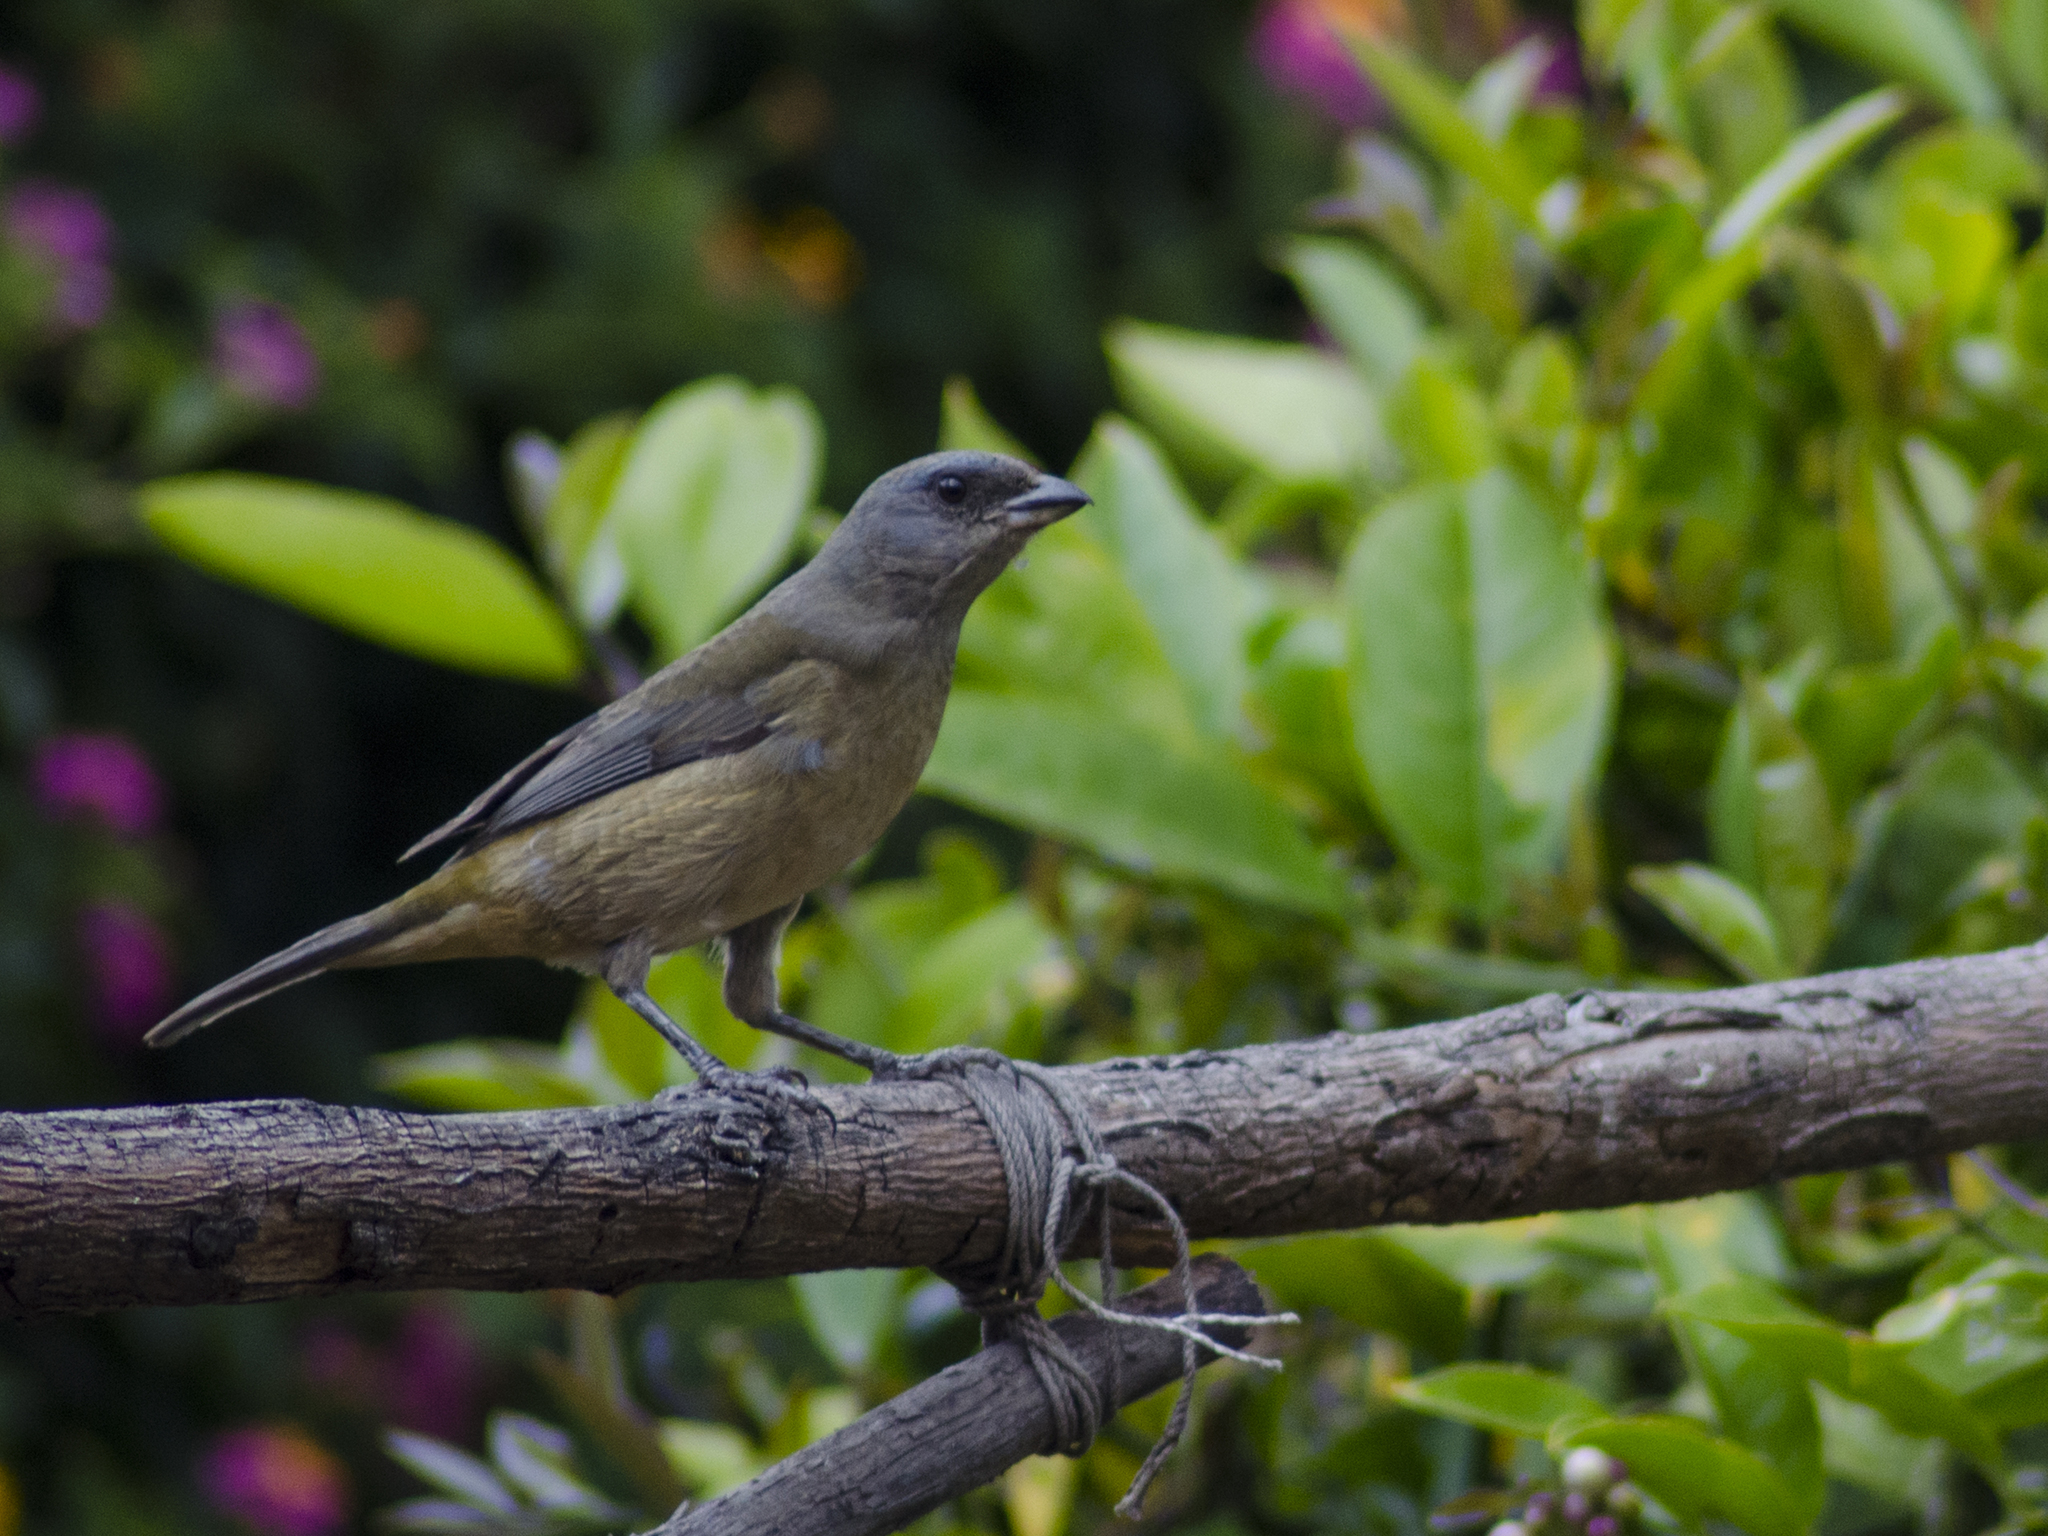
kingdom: Animalia
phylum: Chordata
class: Aves
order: Passeriformes
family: Thraupidae
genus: Rauenia
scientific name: Rauenia bonariensis
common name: Blue-and-yellow tanager
